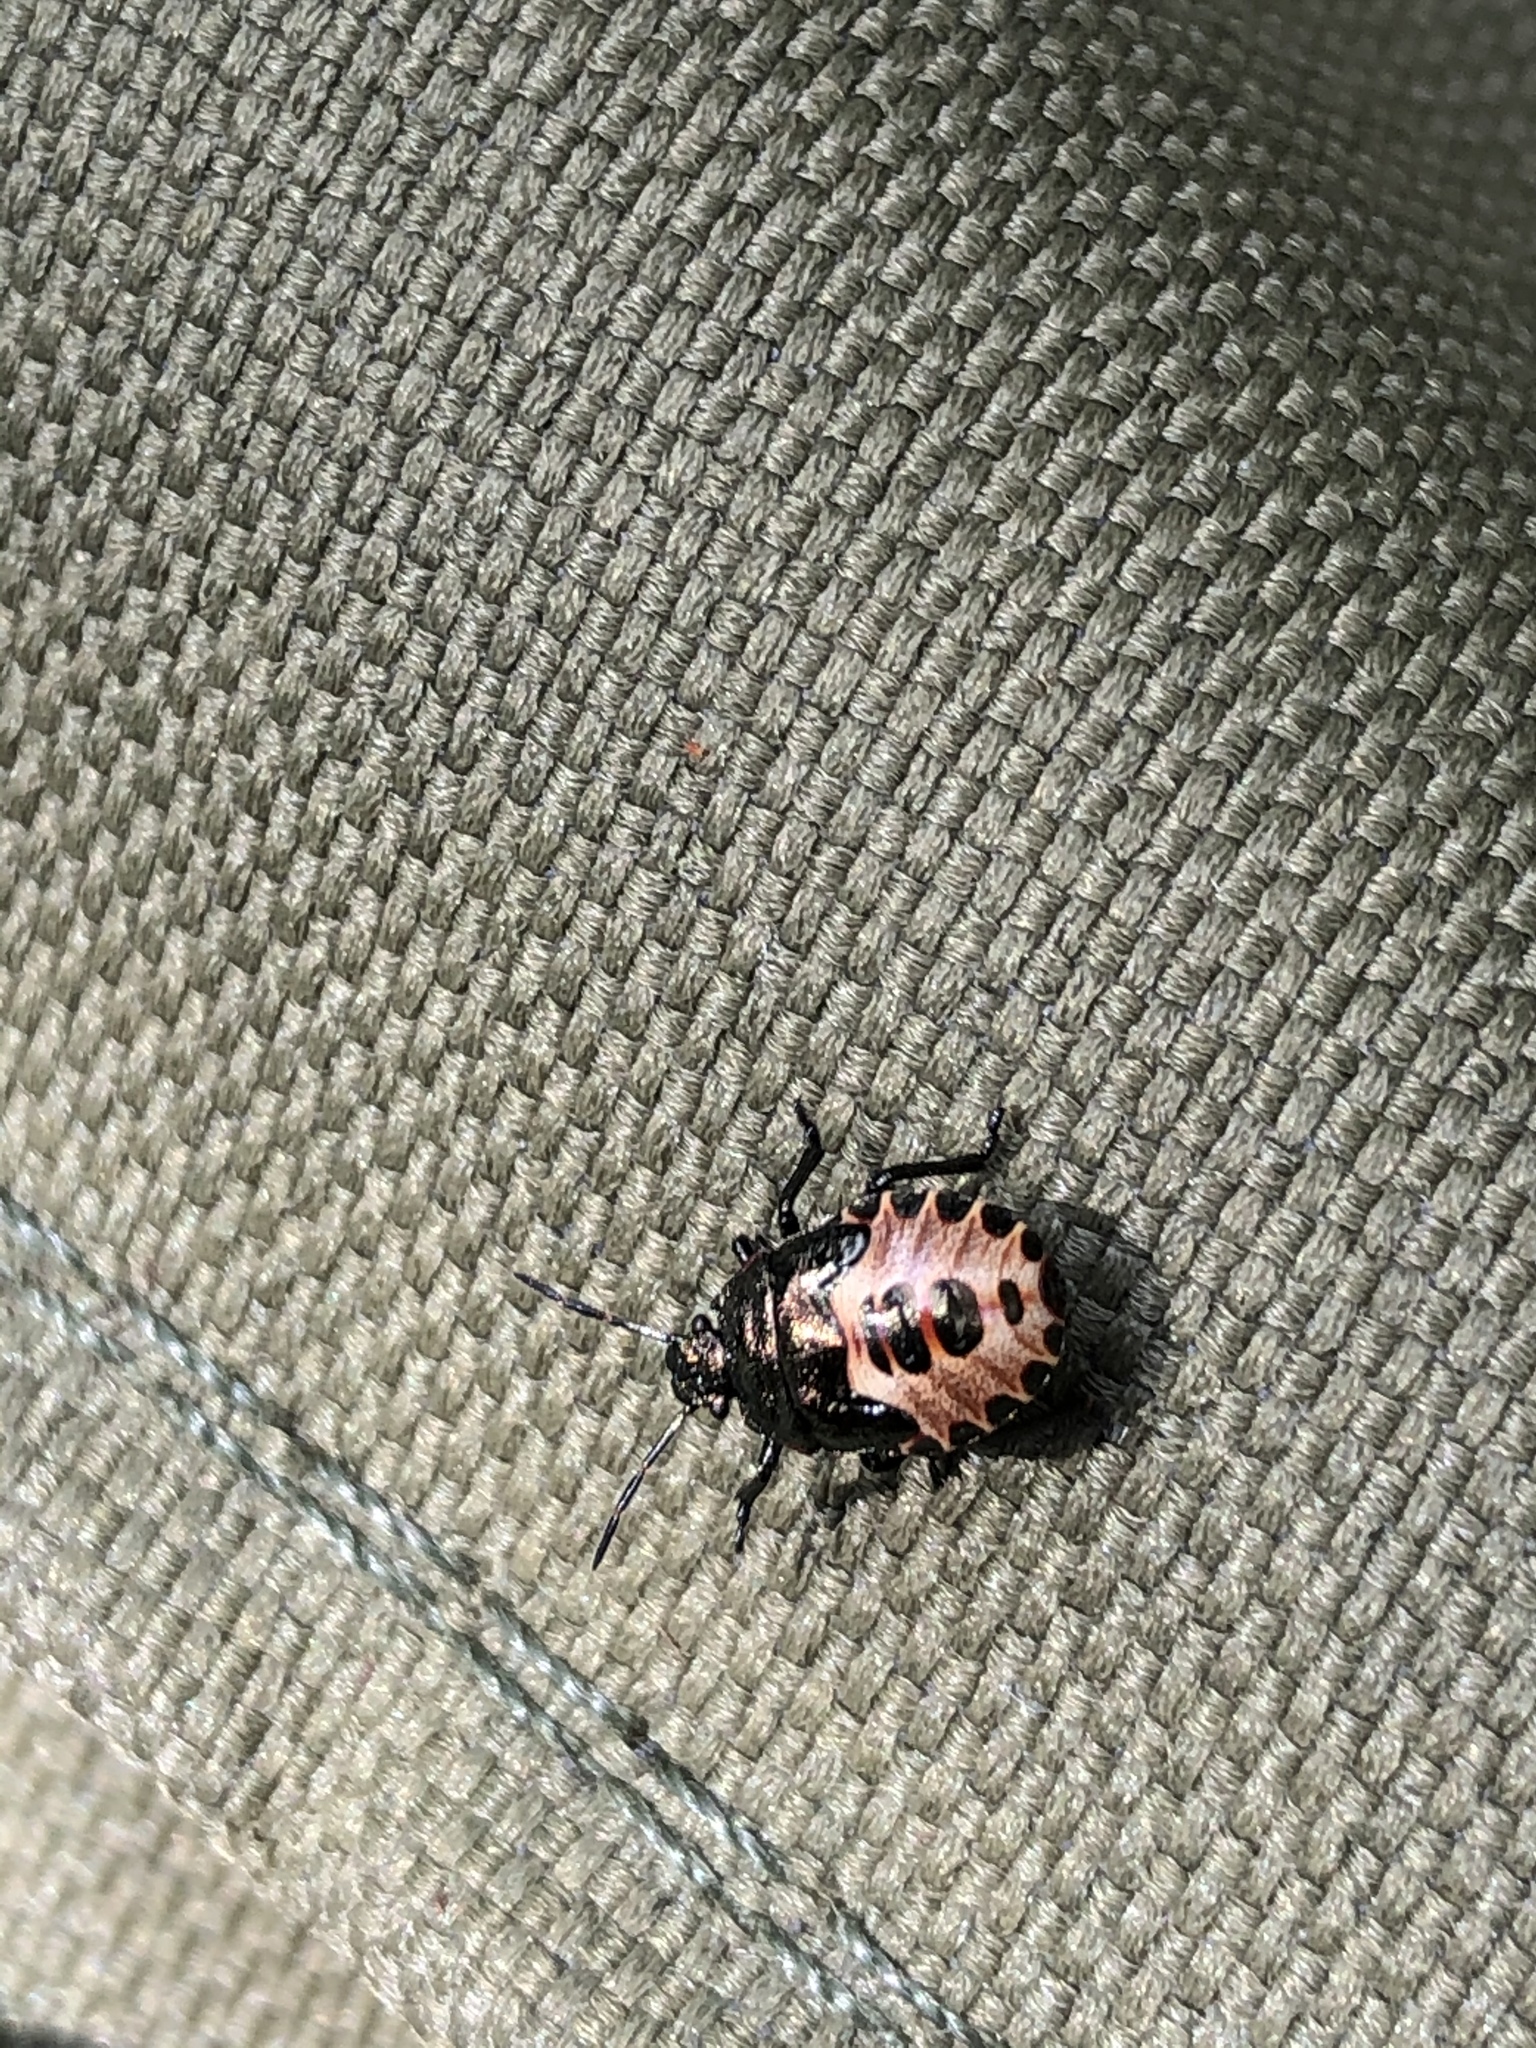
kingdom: Animalia
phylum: Arthropoda
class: Insecta
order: Hemiptera
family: Pentatomidae
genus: Rhacognathus
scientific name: Rhacognathus punctatus
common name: Heather bug
